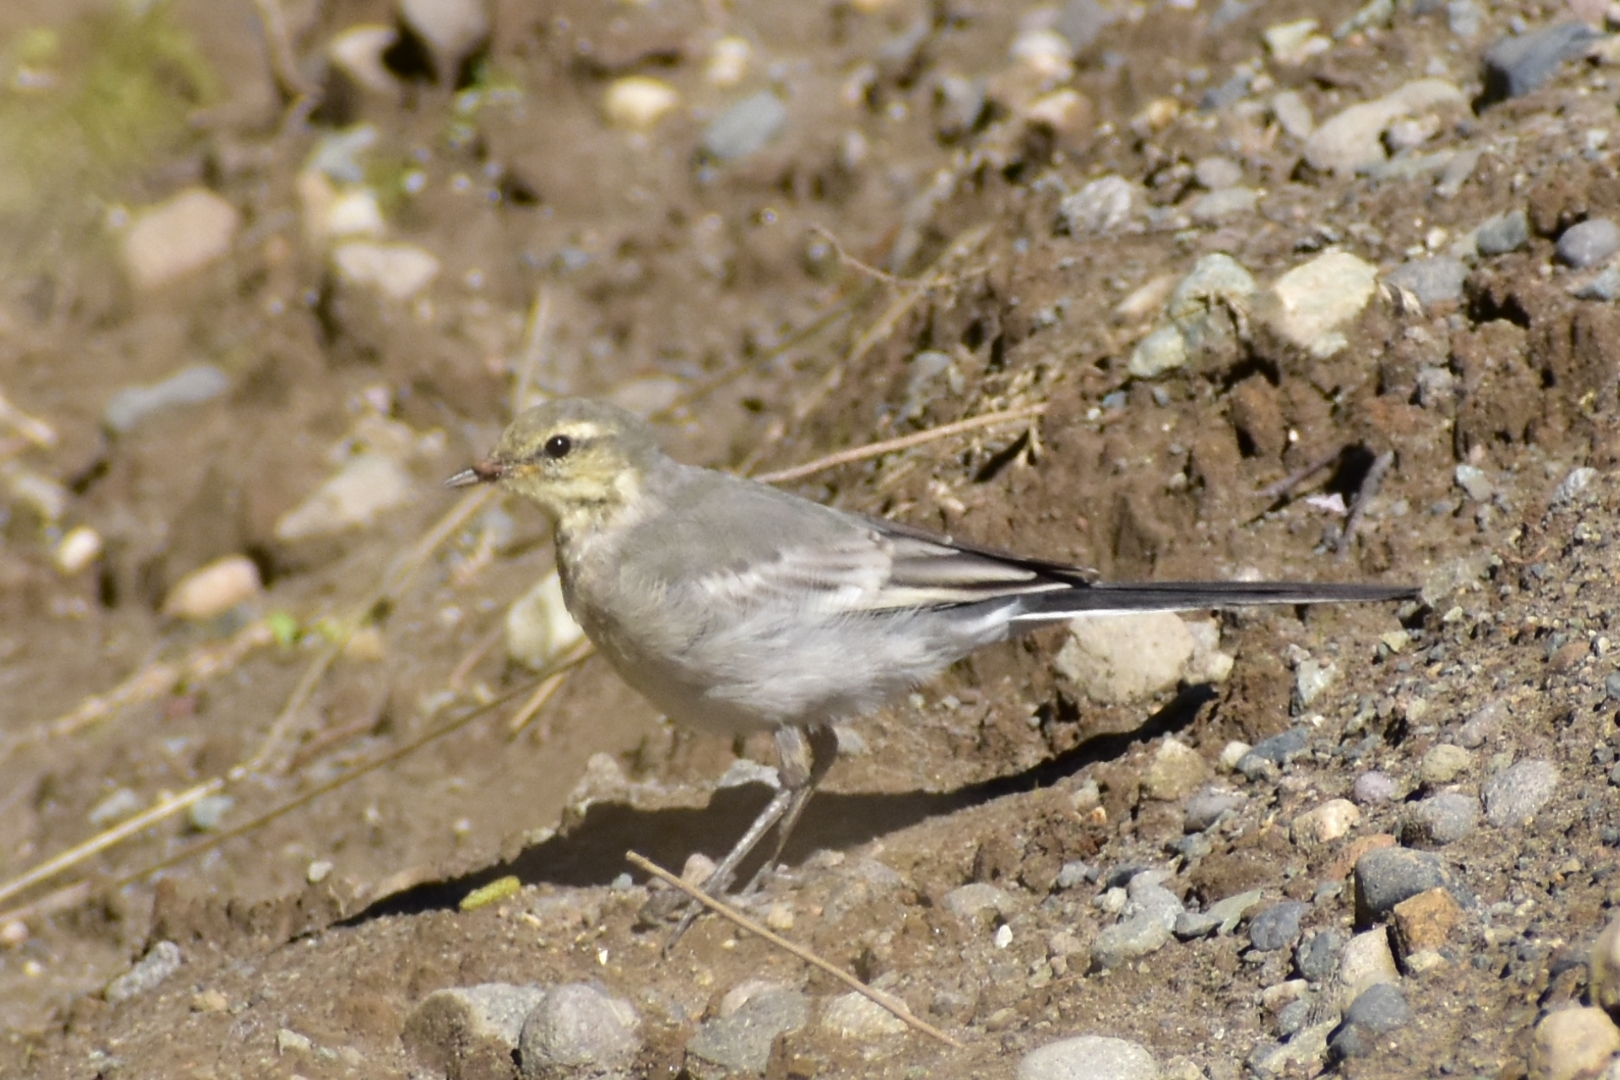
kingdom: Animalia
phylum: Chordata
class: Aves
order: Passeriformes
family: Motacillidae
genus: Motacilla
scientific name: Motacilla alba
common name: White wagtail
